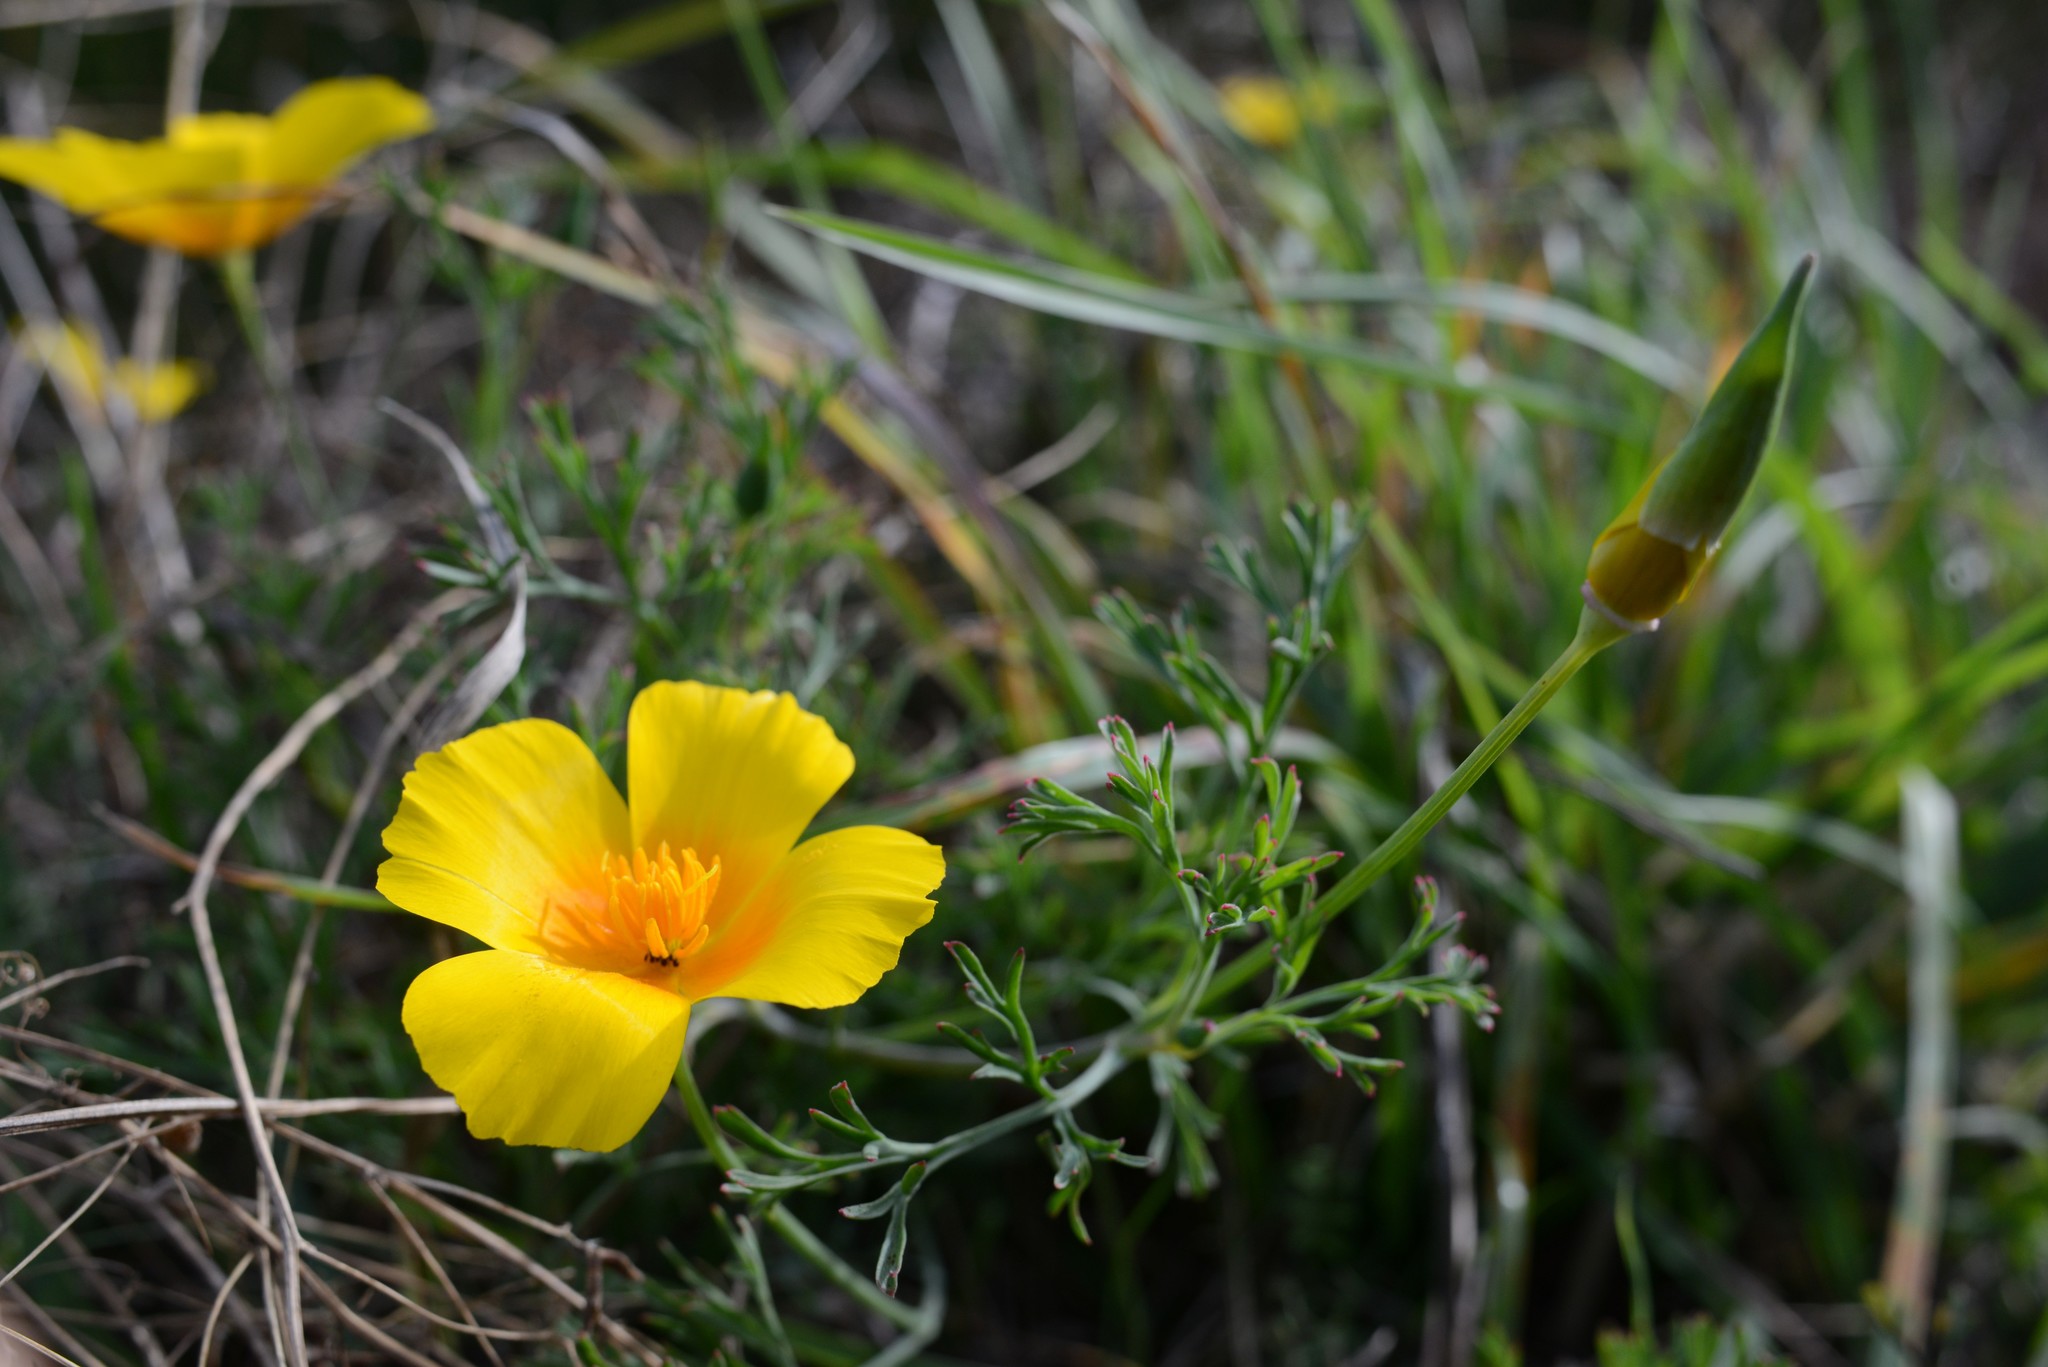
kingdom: Plantae
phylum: Tracheophyta
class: Magnoliopsida
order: Ranunculales
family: Papaveraceae
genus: Eschscholzia
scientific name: Eschscholzia californica
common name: California poppy
